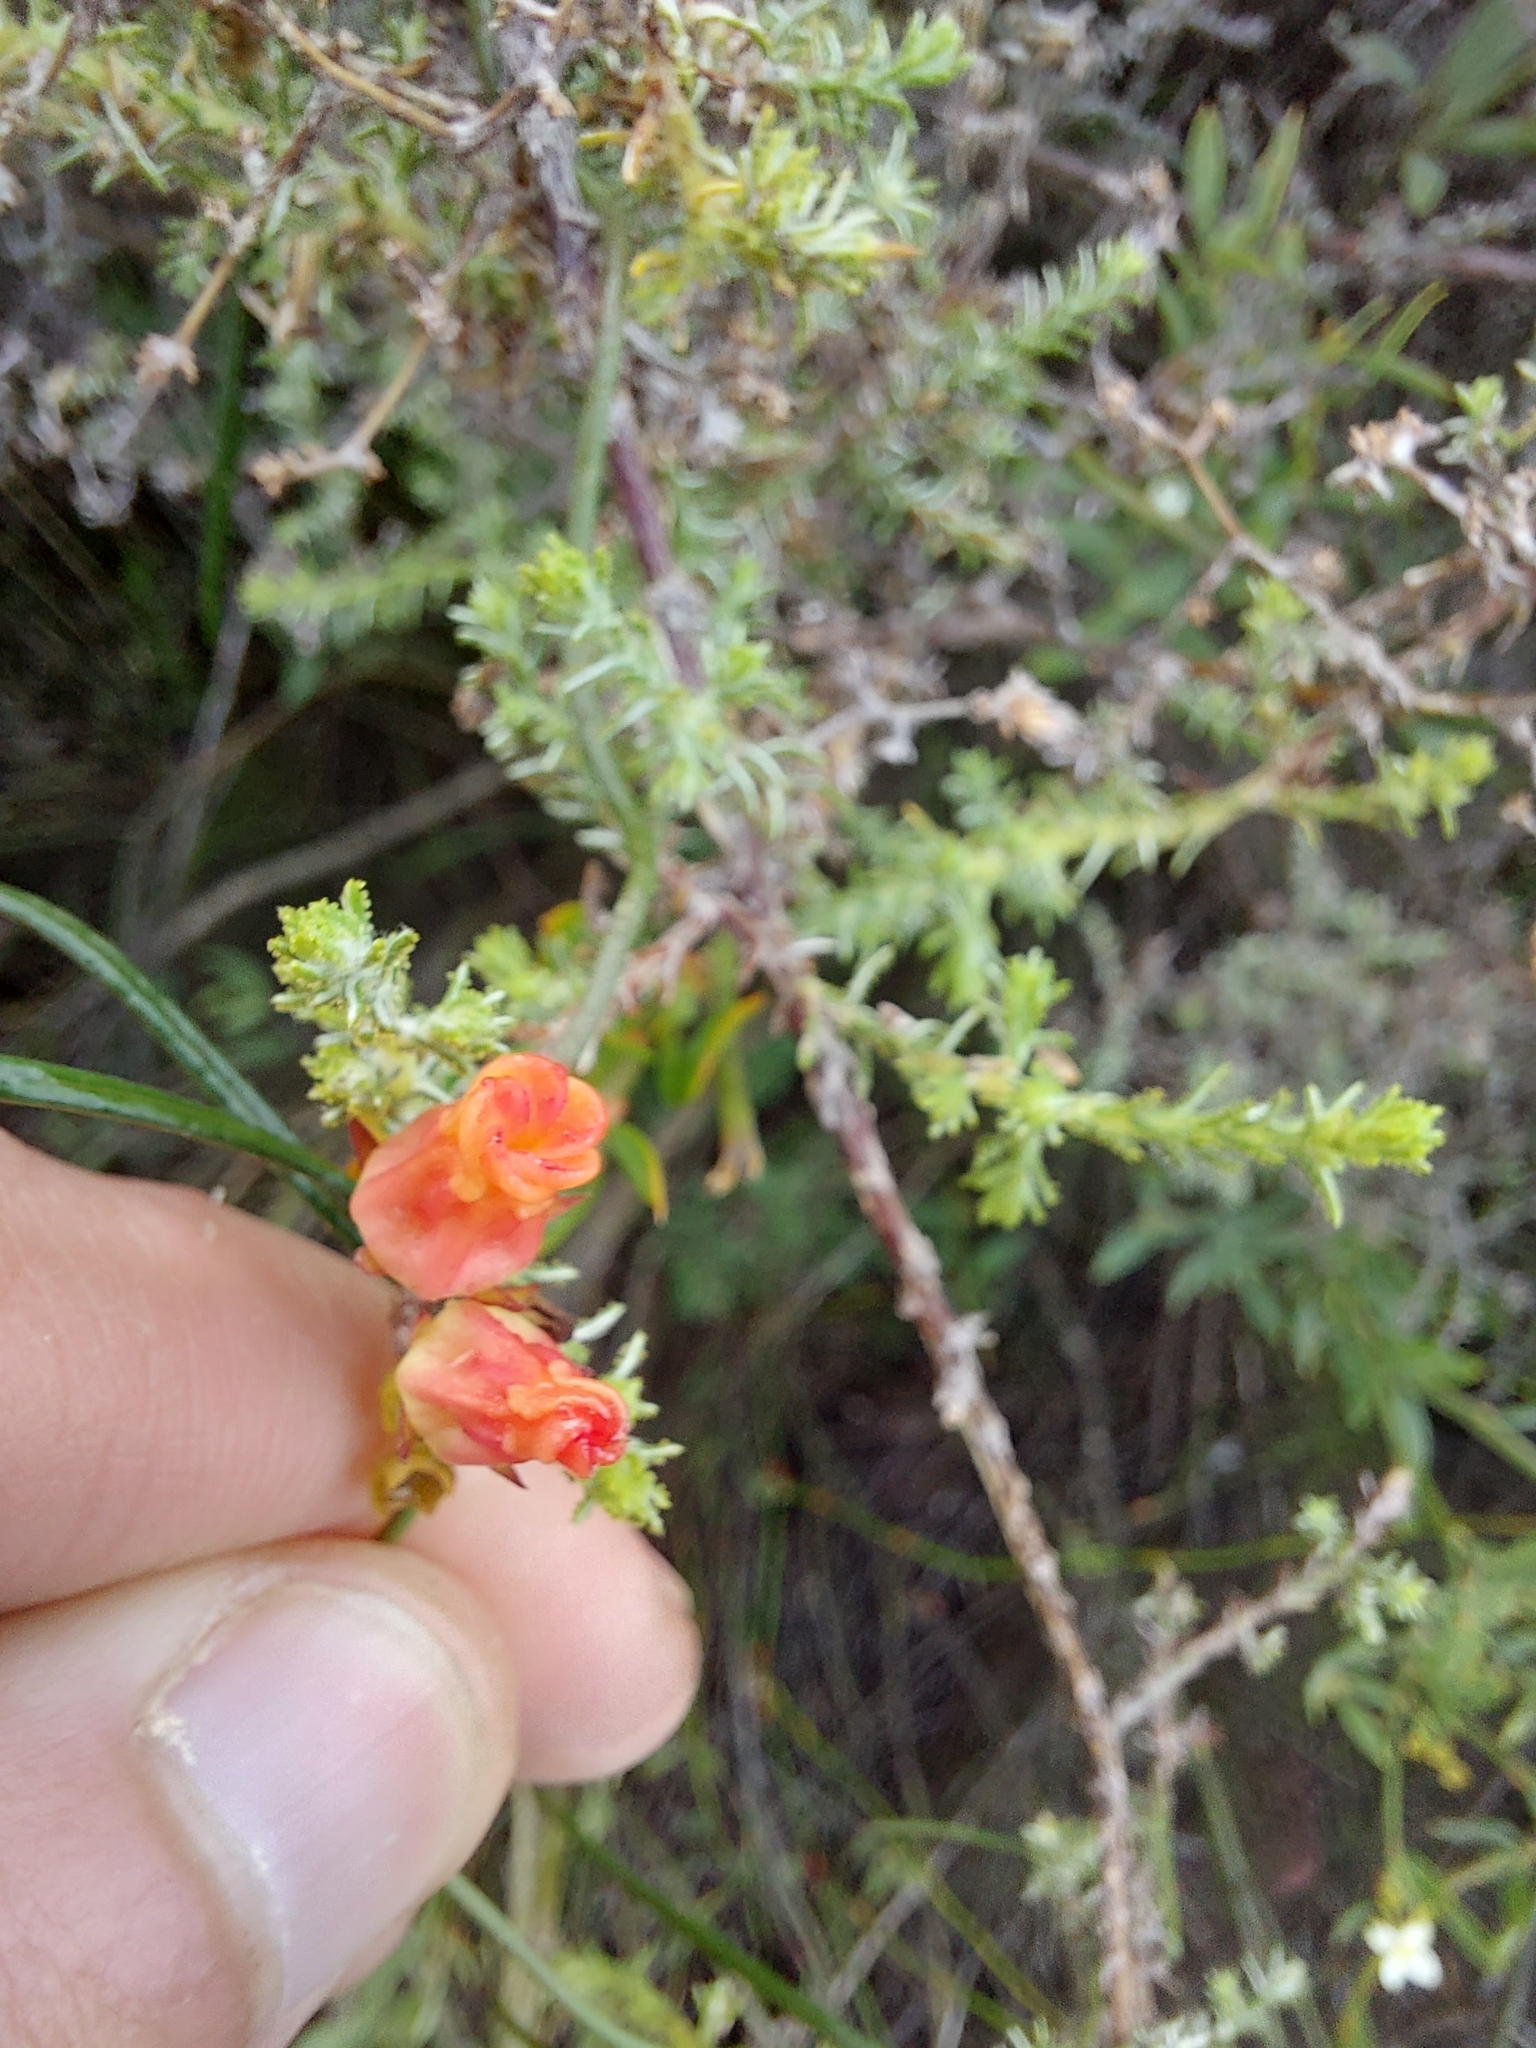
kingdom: Plantae
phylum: Tracheophyta
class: Magnoliopsida
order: Gentianales
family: Apocynaceae
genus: Microloma
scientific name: Microloma tenuifolium
